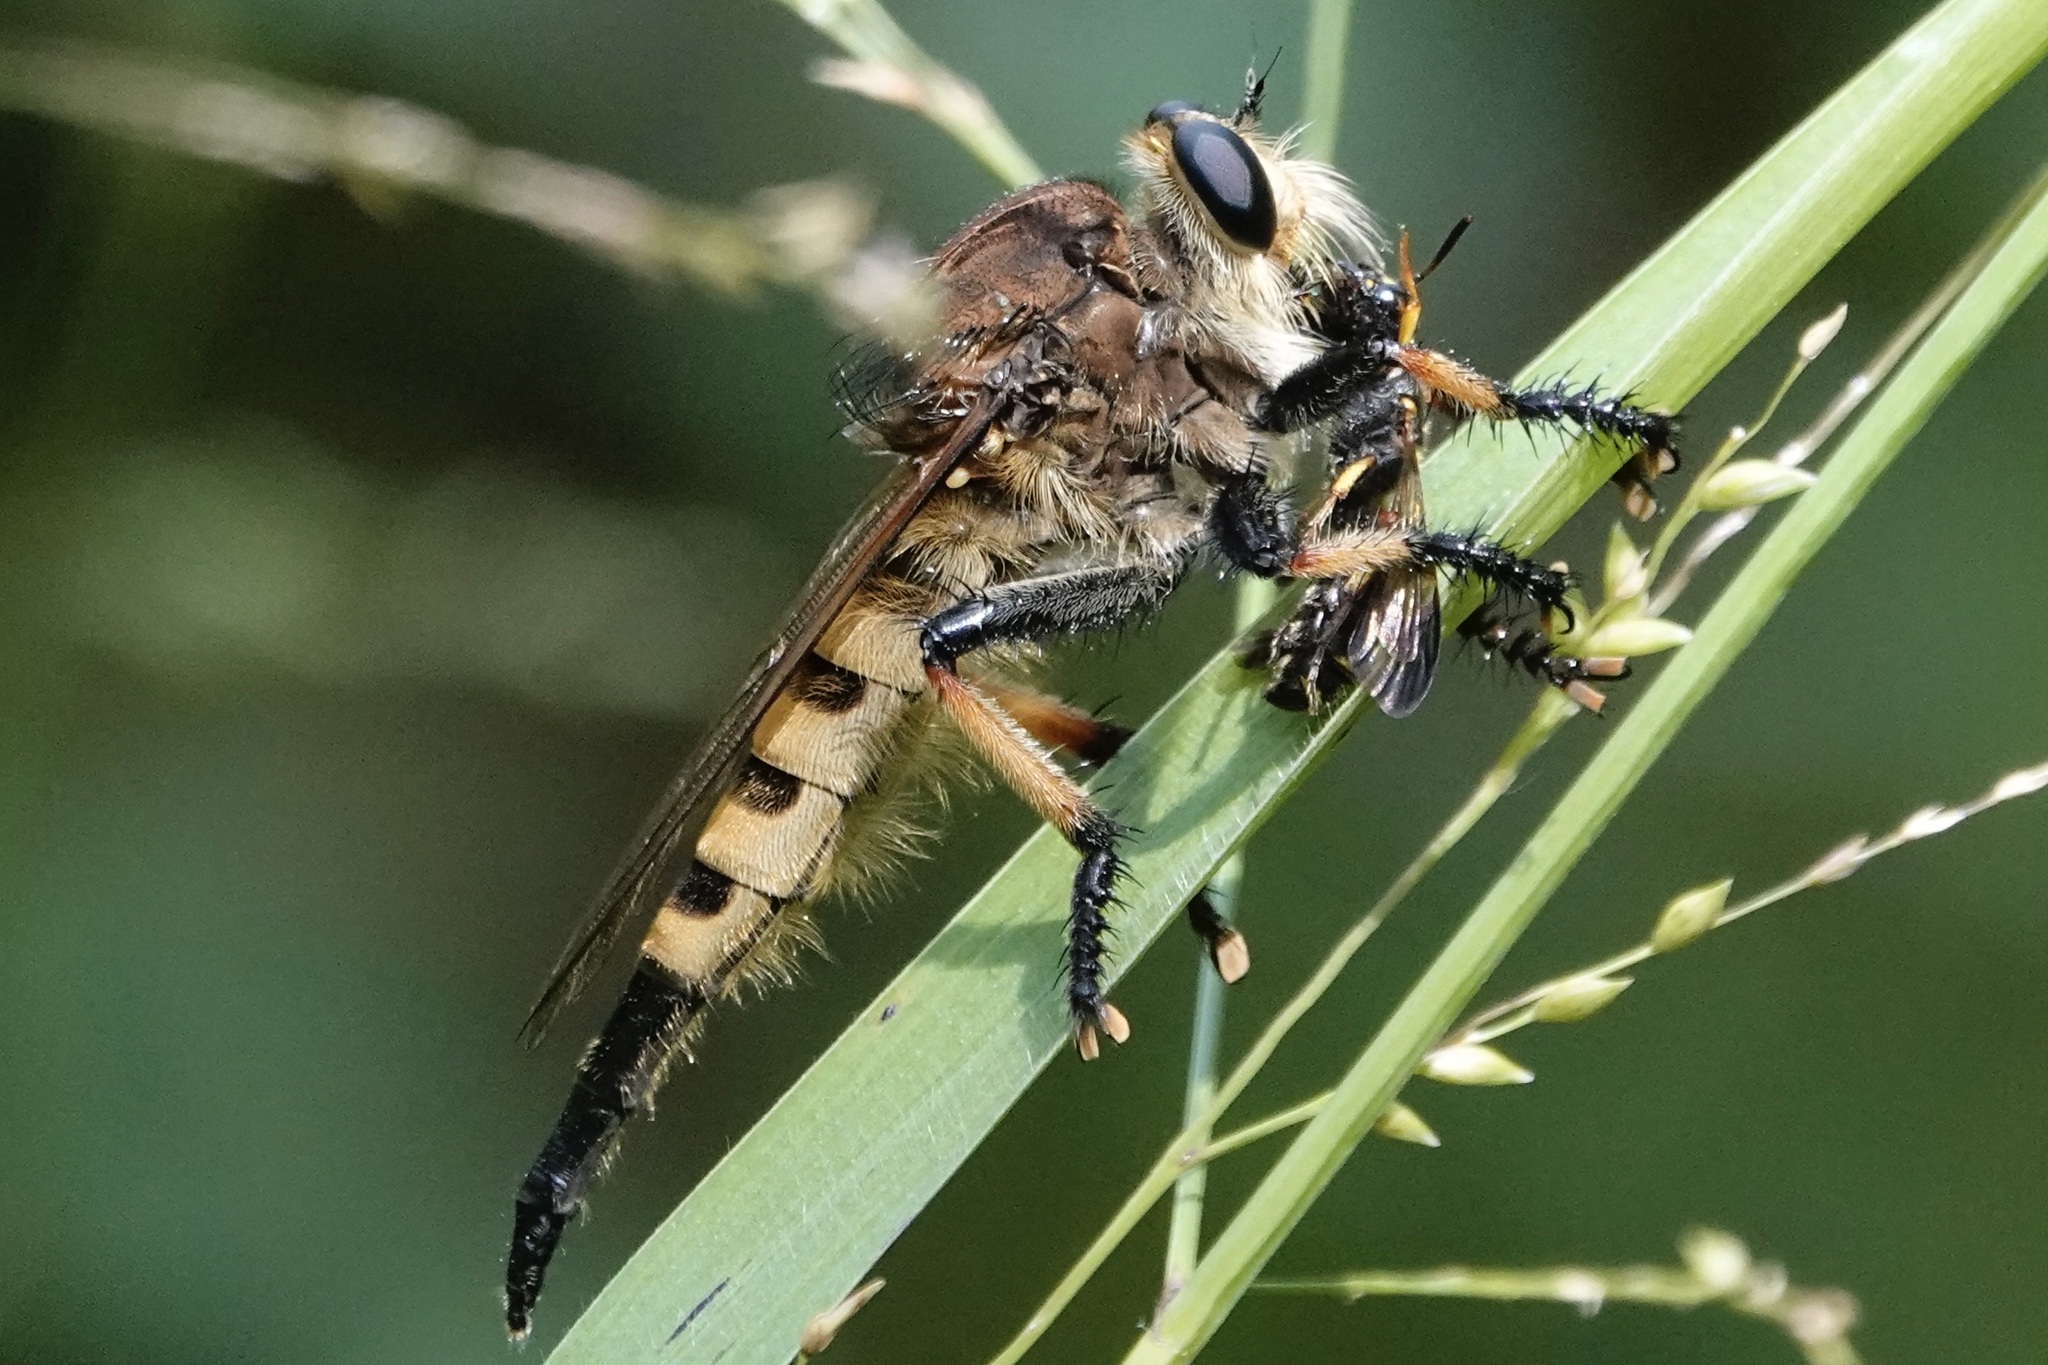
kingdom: Animalia
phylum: Arthropoda
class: Insecta
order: Diptera
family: Asilidae
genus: Promachus
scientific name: Promachus rufipes
